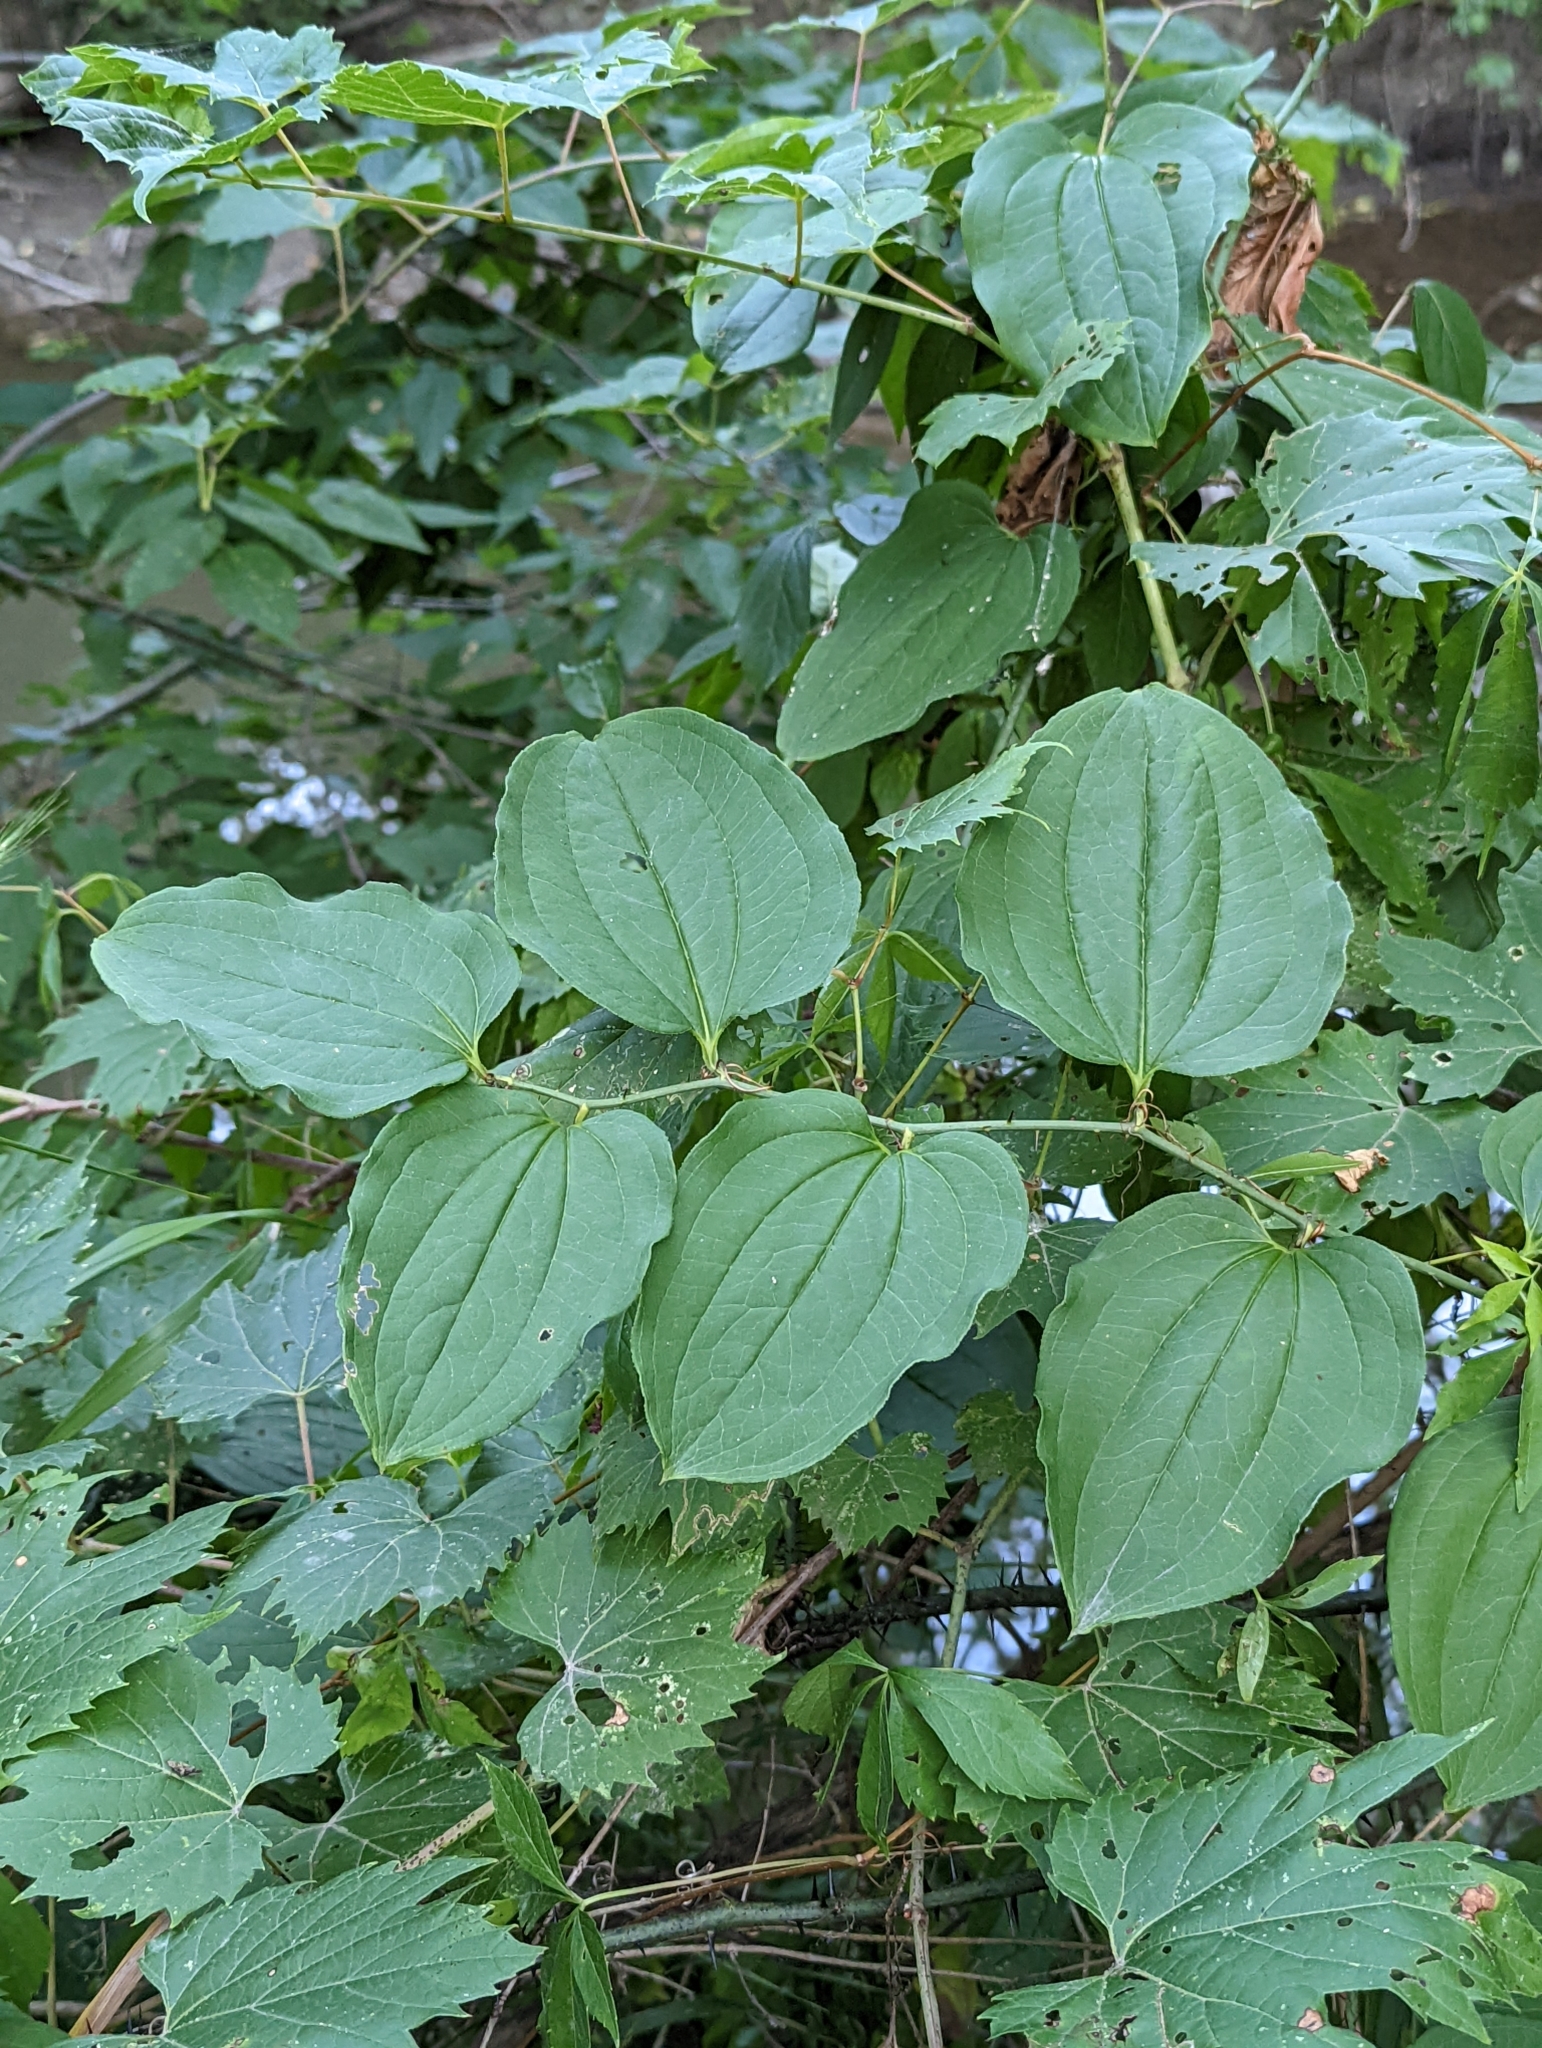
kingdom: Plantae
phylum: Tracheophyta
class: Liliopsida
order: Liliales
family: Smilacaceae
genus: Smilax
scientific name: Smilax tamnoides
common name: Hellfetter
